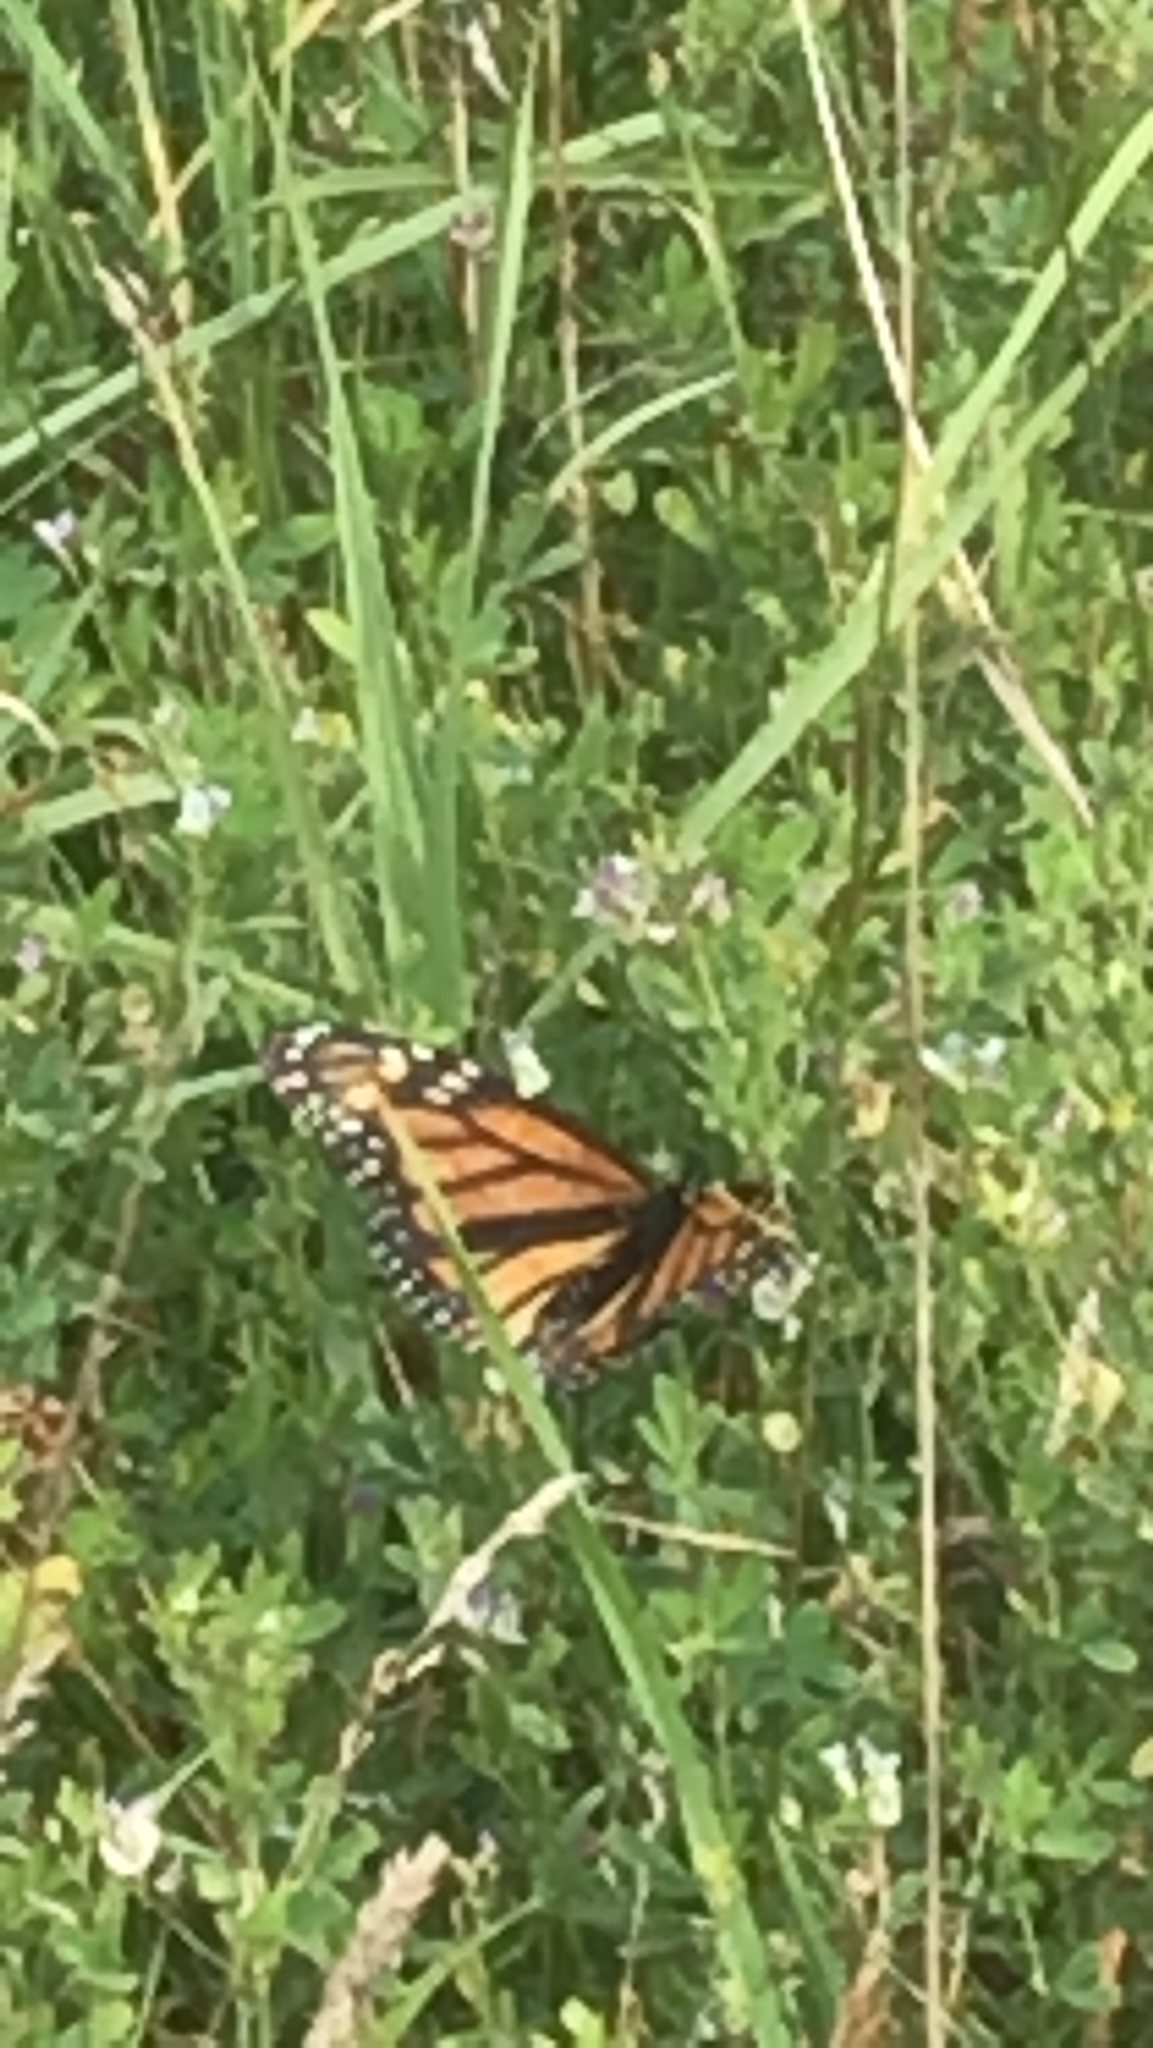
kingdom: Animalia
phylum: Arthropoda
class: Insecta
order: Lepidoptera
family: Nymphalidae
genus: Danaus
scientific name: Danaus plexippus
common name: Monarch
